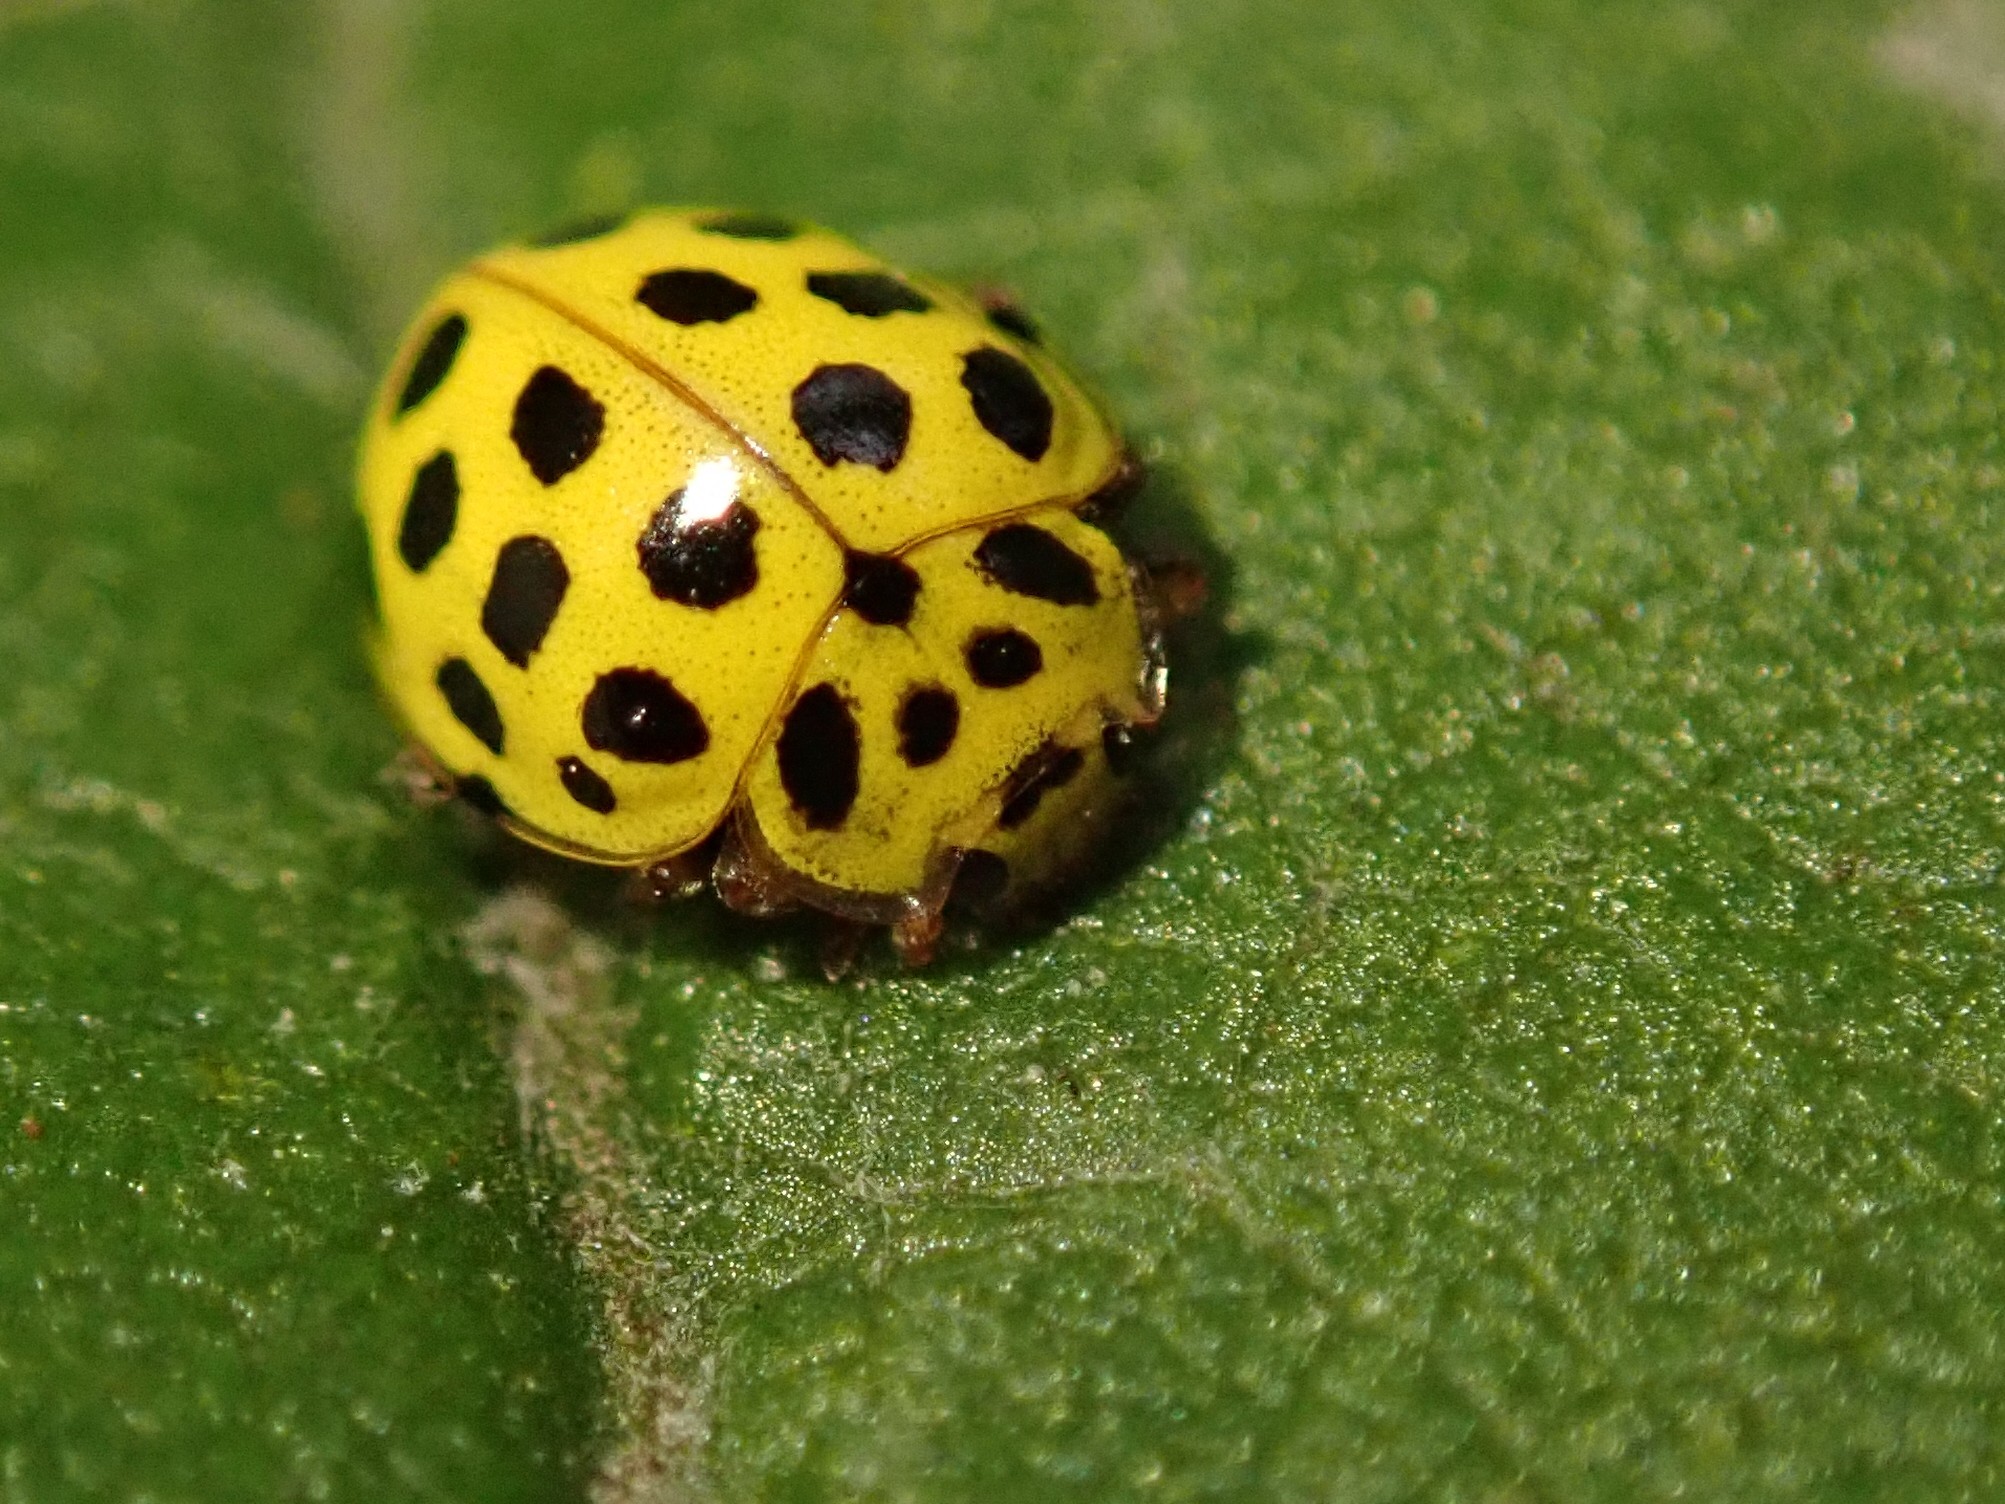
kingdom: Animalia
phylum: Arthropoda
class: Insecta
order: Coleoptera
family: Coccinellidae
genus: Psyllobora
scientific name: Psyllobora vigintiduopunctata
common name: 22-spot ladybird
